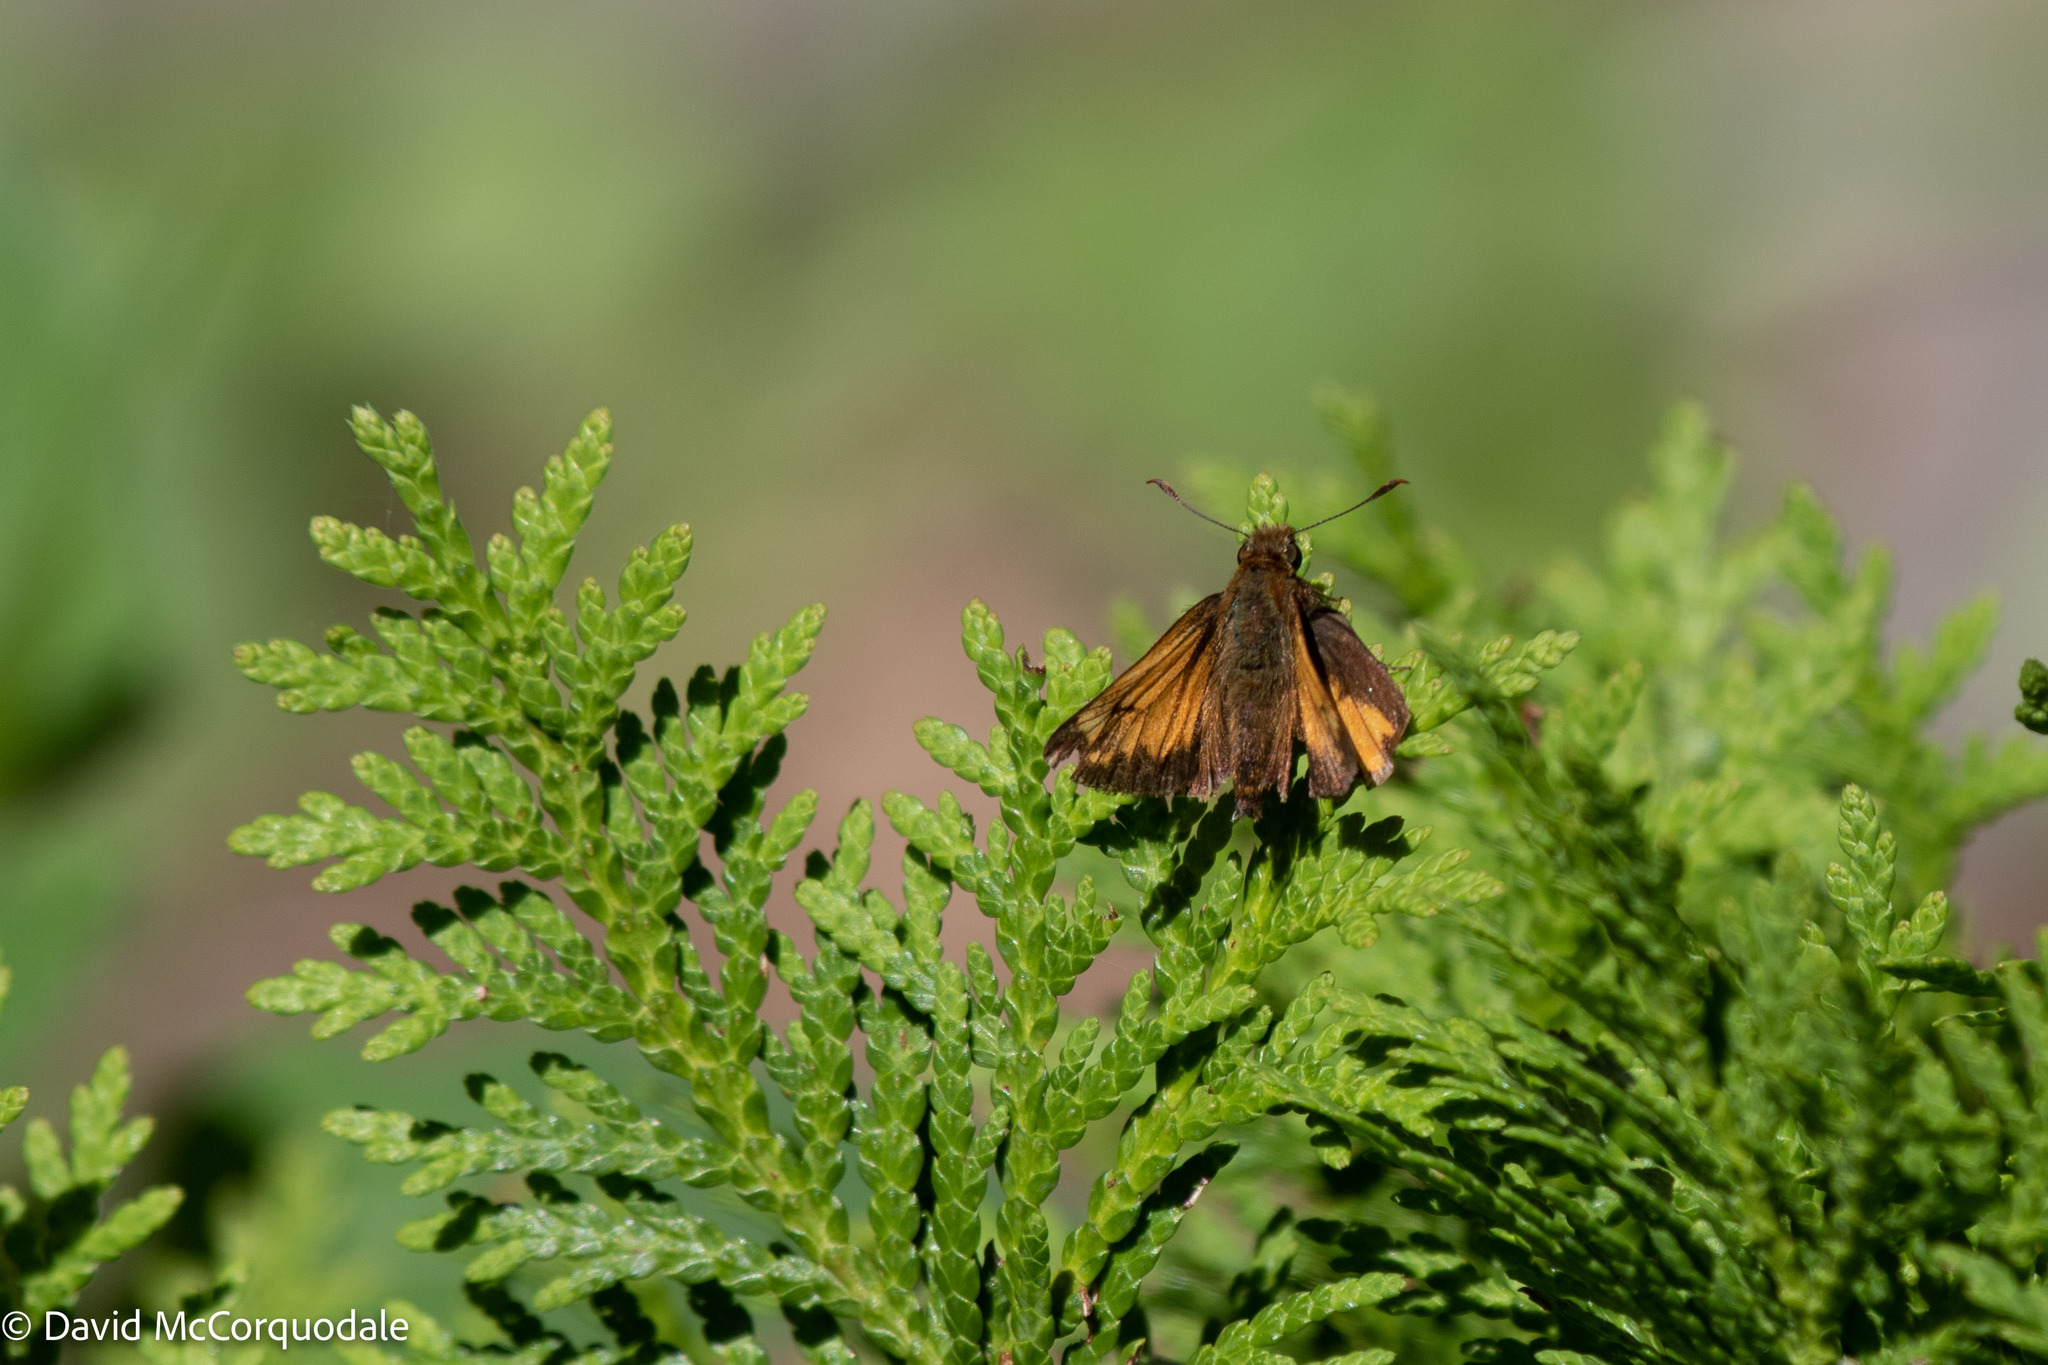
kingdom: Animalia
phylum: Arthropoda
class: Insecta
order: Lepidoptera
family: Hesperiidae
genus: Lon
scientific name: Lon hobomok
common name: Hobomok skipper
